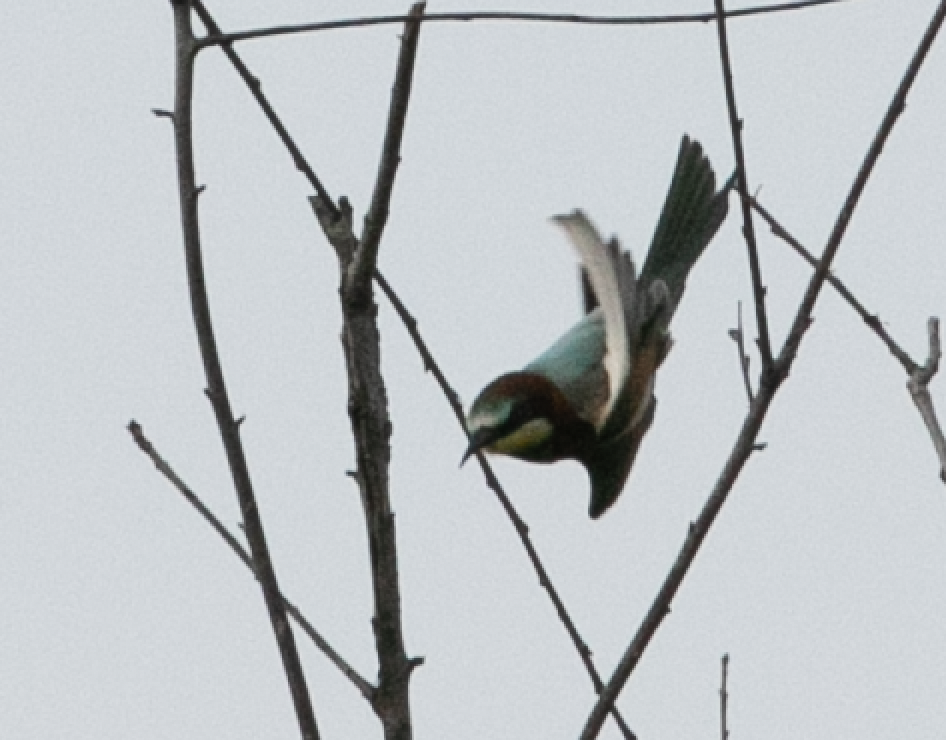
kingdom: Animalia
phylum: Chordata
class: Aves
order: Coraciiformes
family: Meropidae
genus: Merops
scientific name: Merops apiaster
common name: European bee-eater
